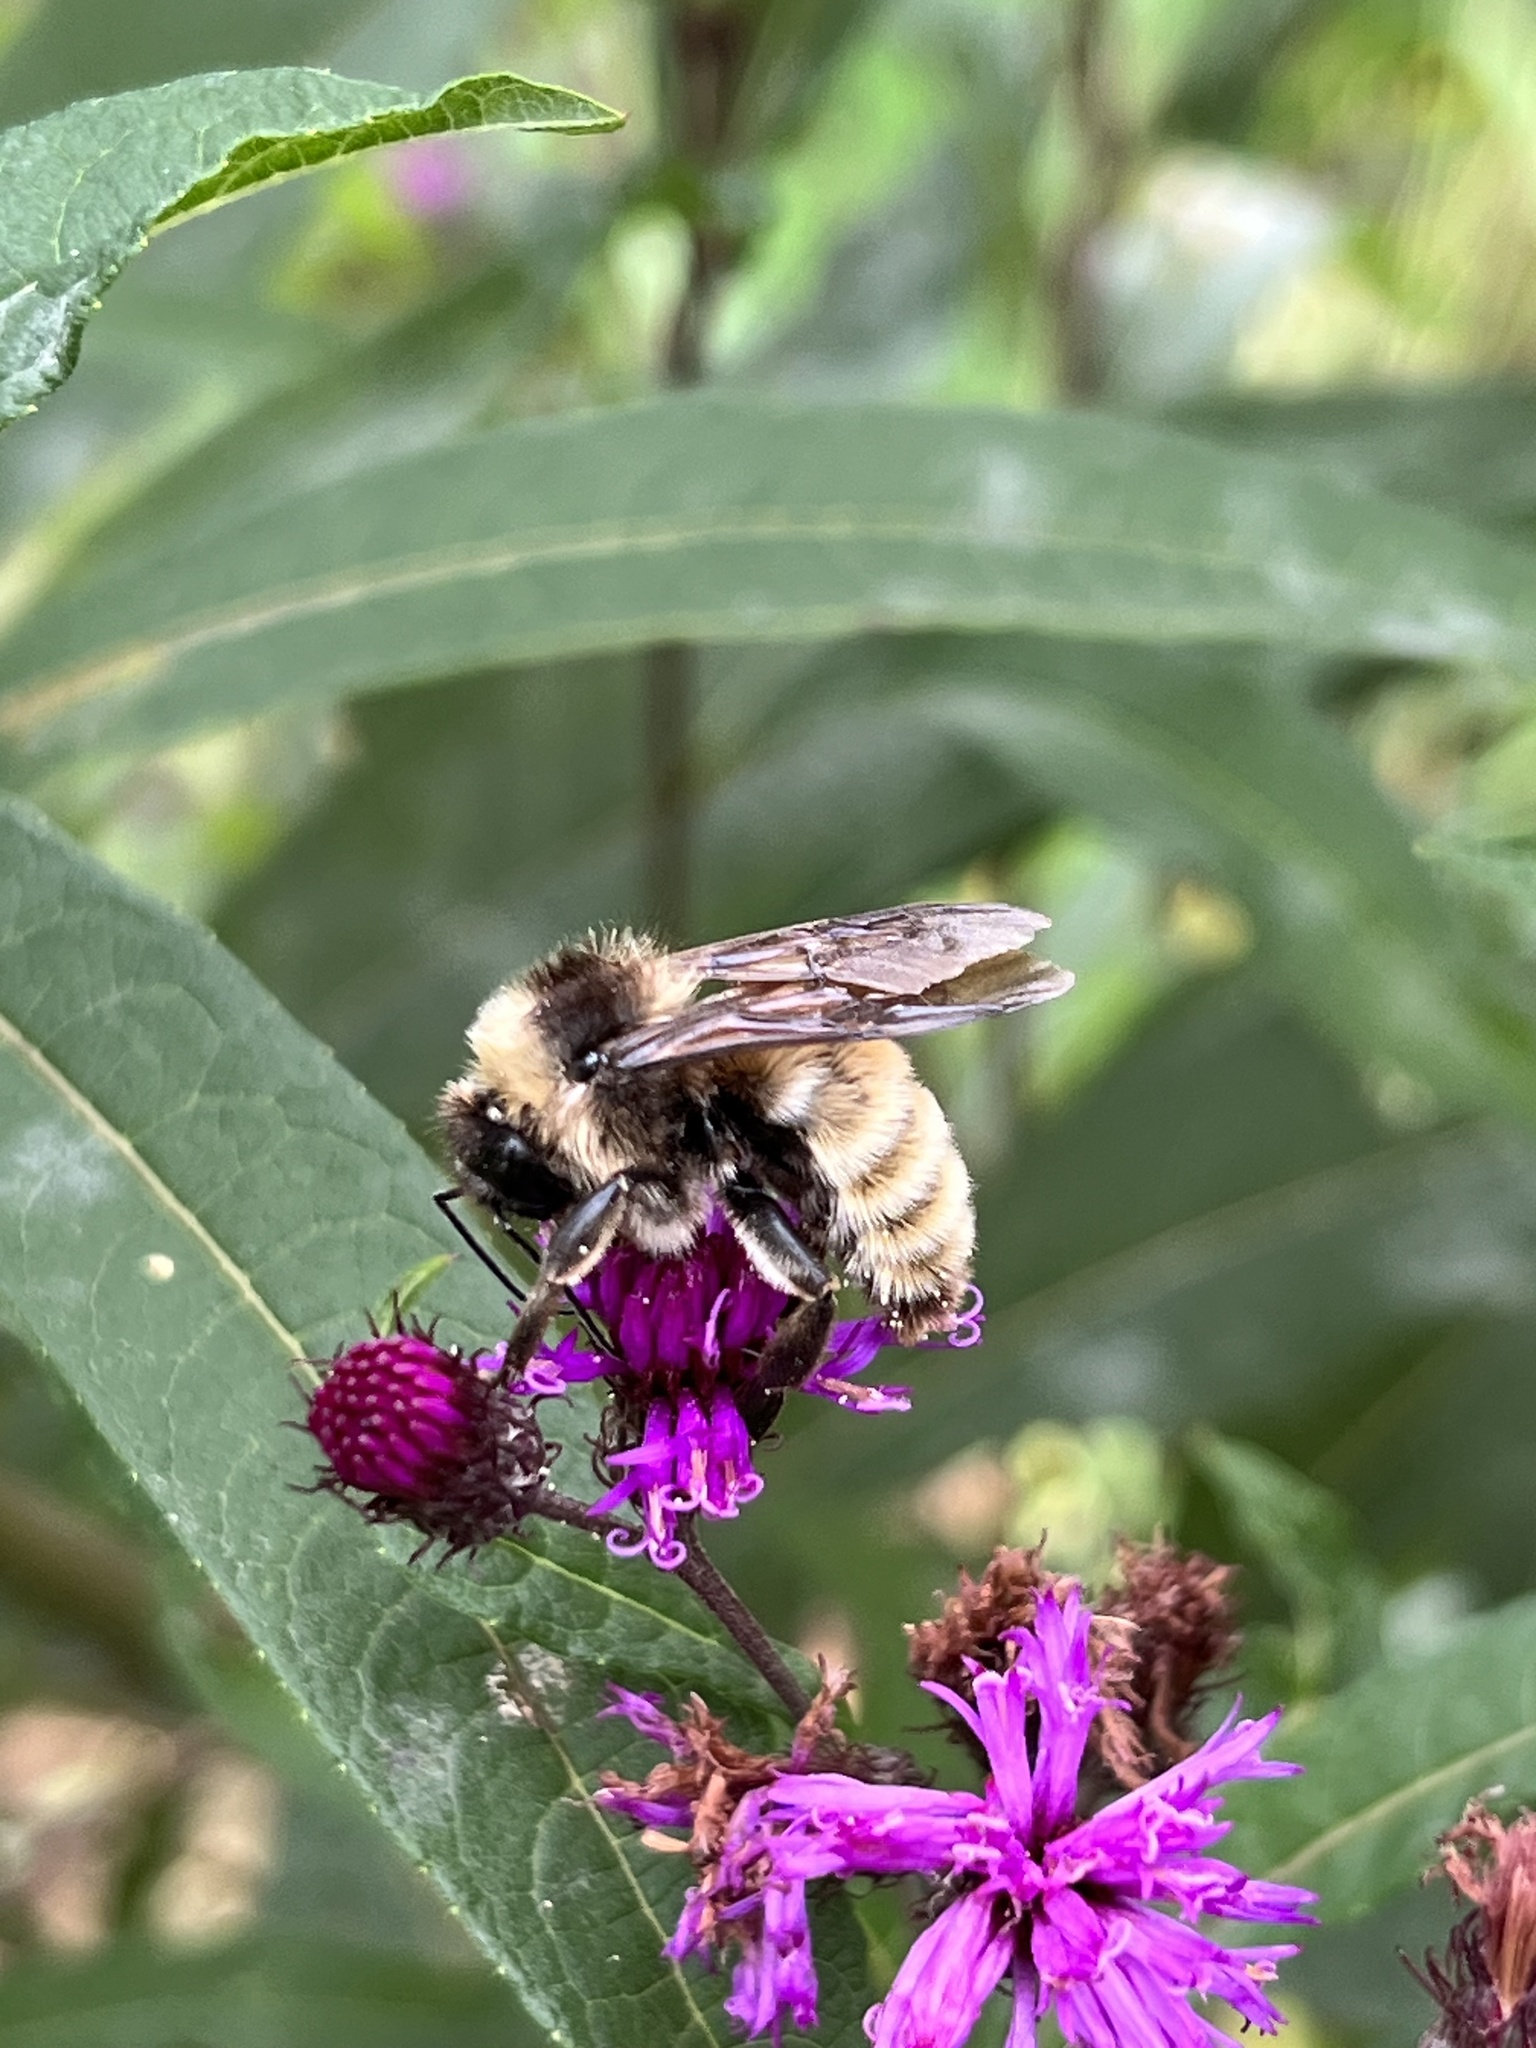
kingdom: Animalia
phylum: Arthropoda
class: Insecta
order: Hymenoptera
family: Apidae
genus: Bombus
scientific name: Bombus pensylvanicus
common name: Bumble bee
